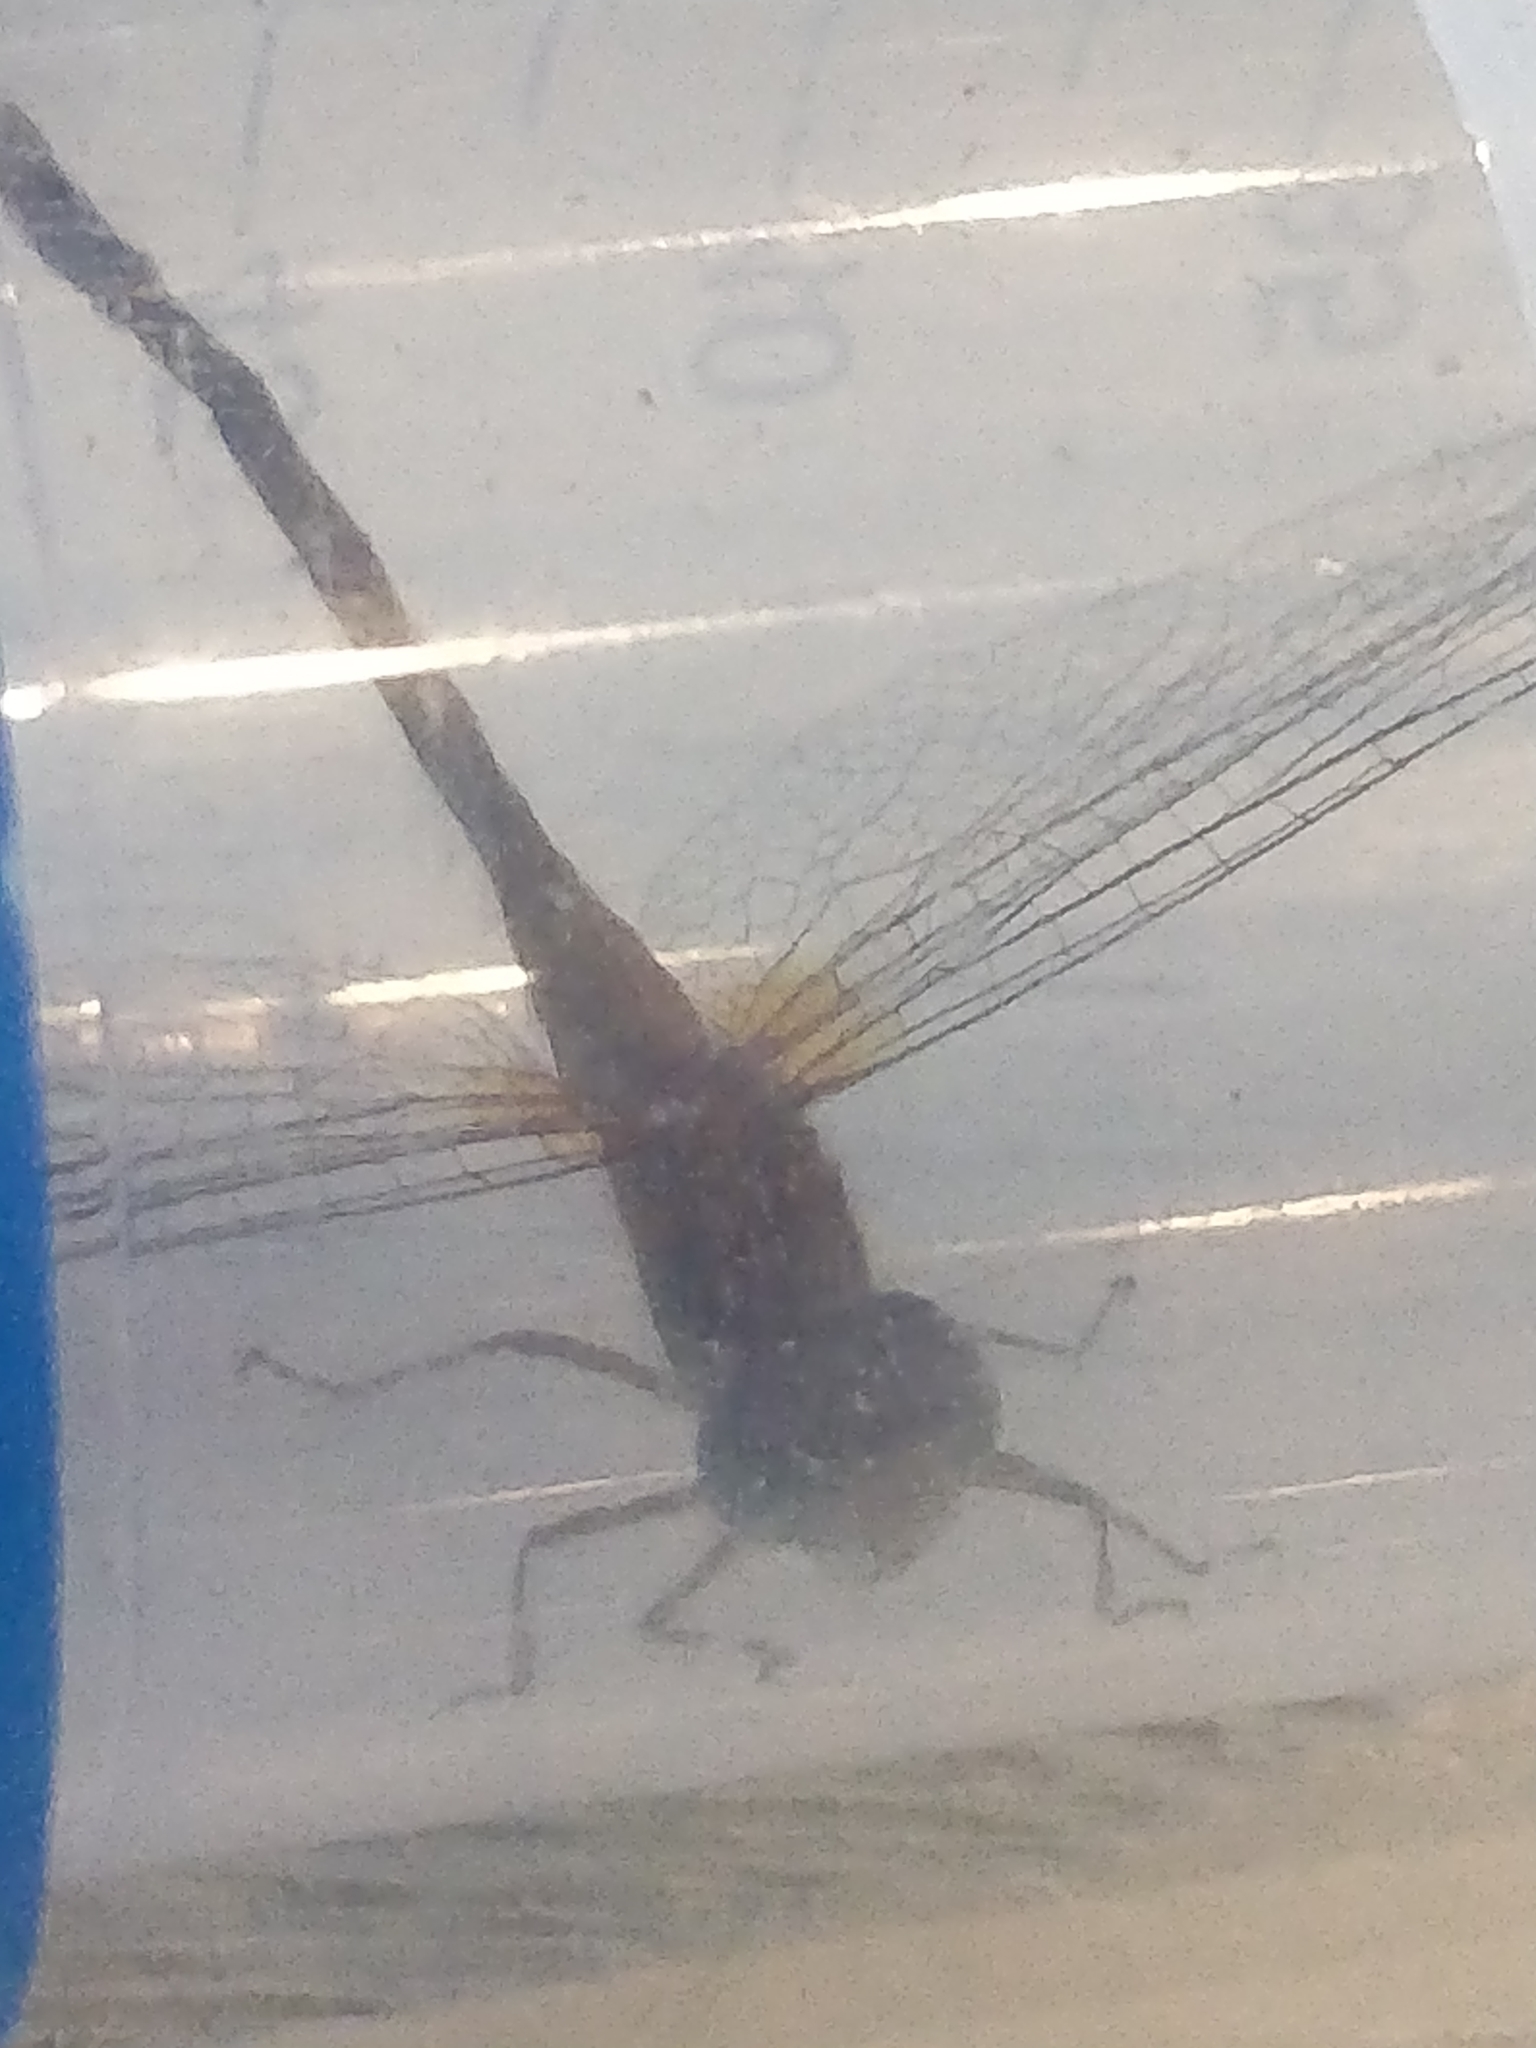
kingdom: Animalia
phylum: Arthropoda
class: Insecta
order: Odonata
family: Libellulidae
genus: Sympetrum
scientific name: Sympetrum vicinum
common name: Autumn meadowhawk
